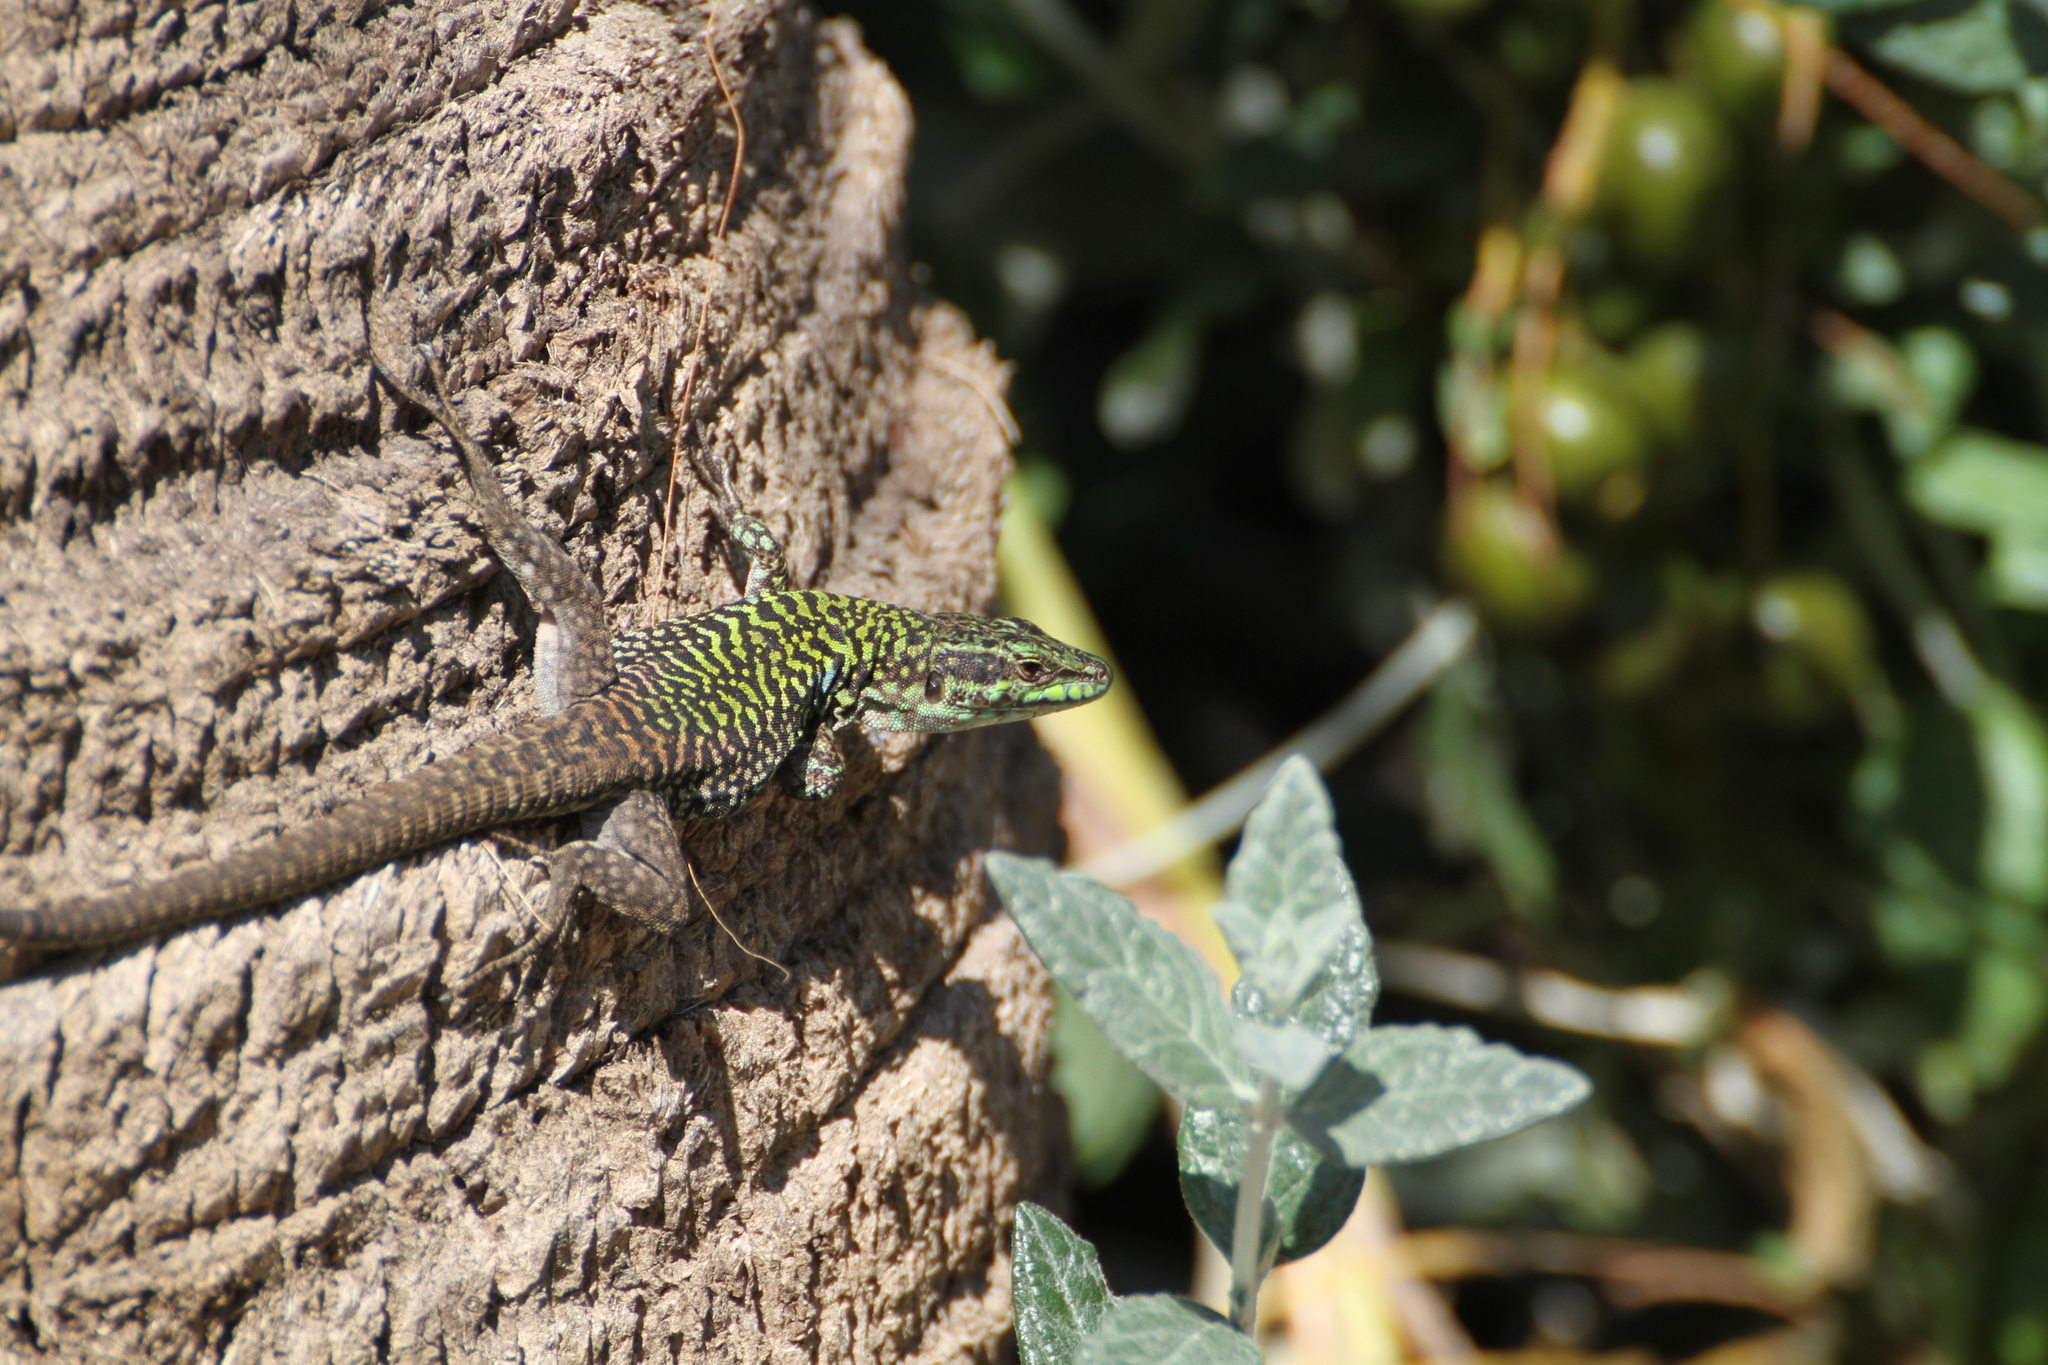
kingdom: Animalia
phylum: Chordata
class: Squamata
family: Lacertidae
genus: Podarcis
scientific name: Podarcis siculus
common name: Italian wall lizard
